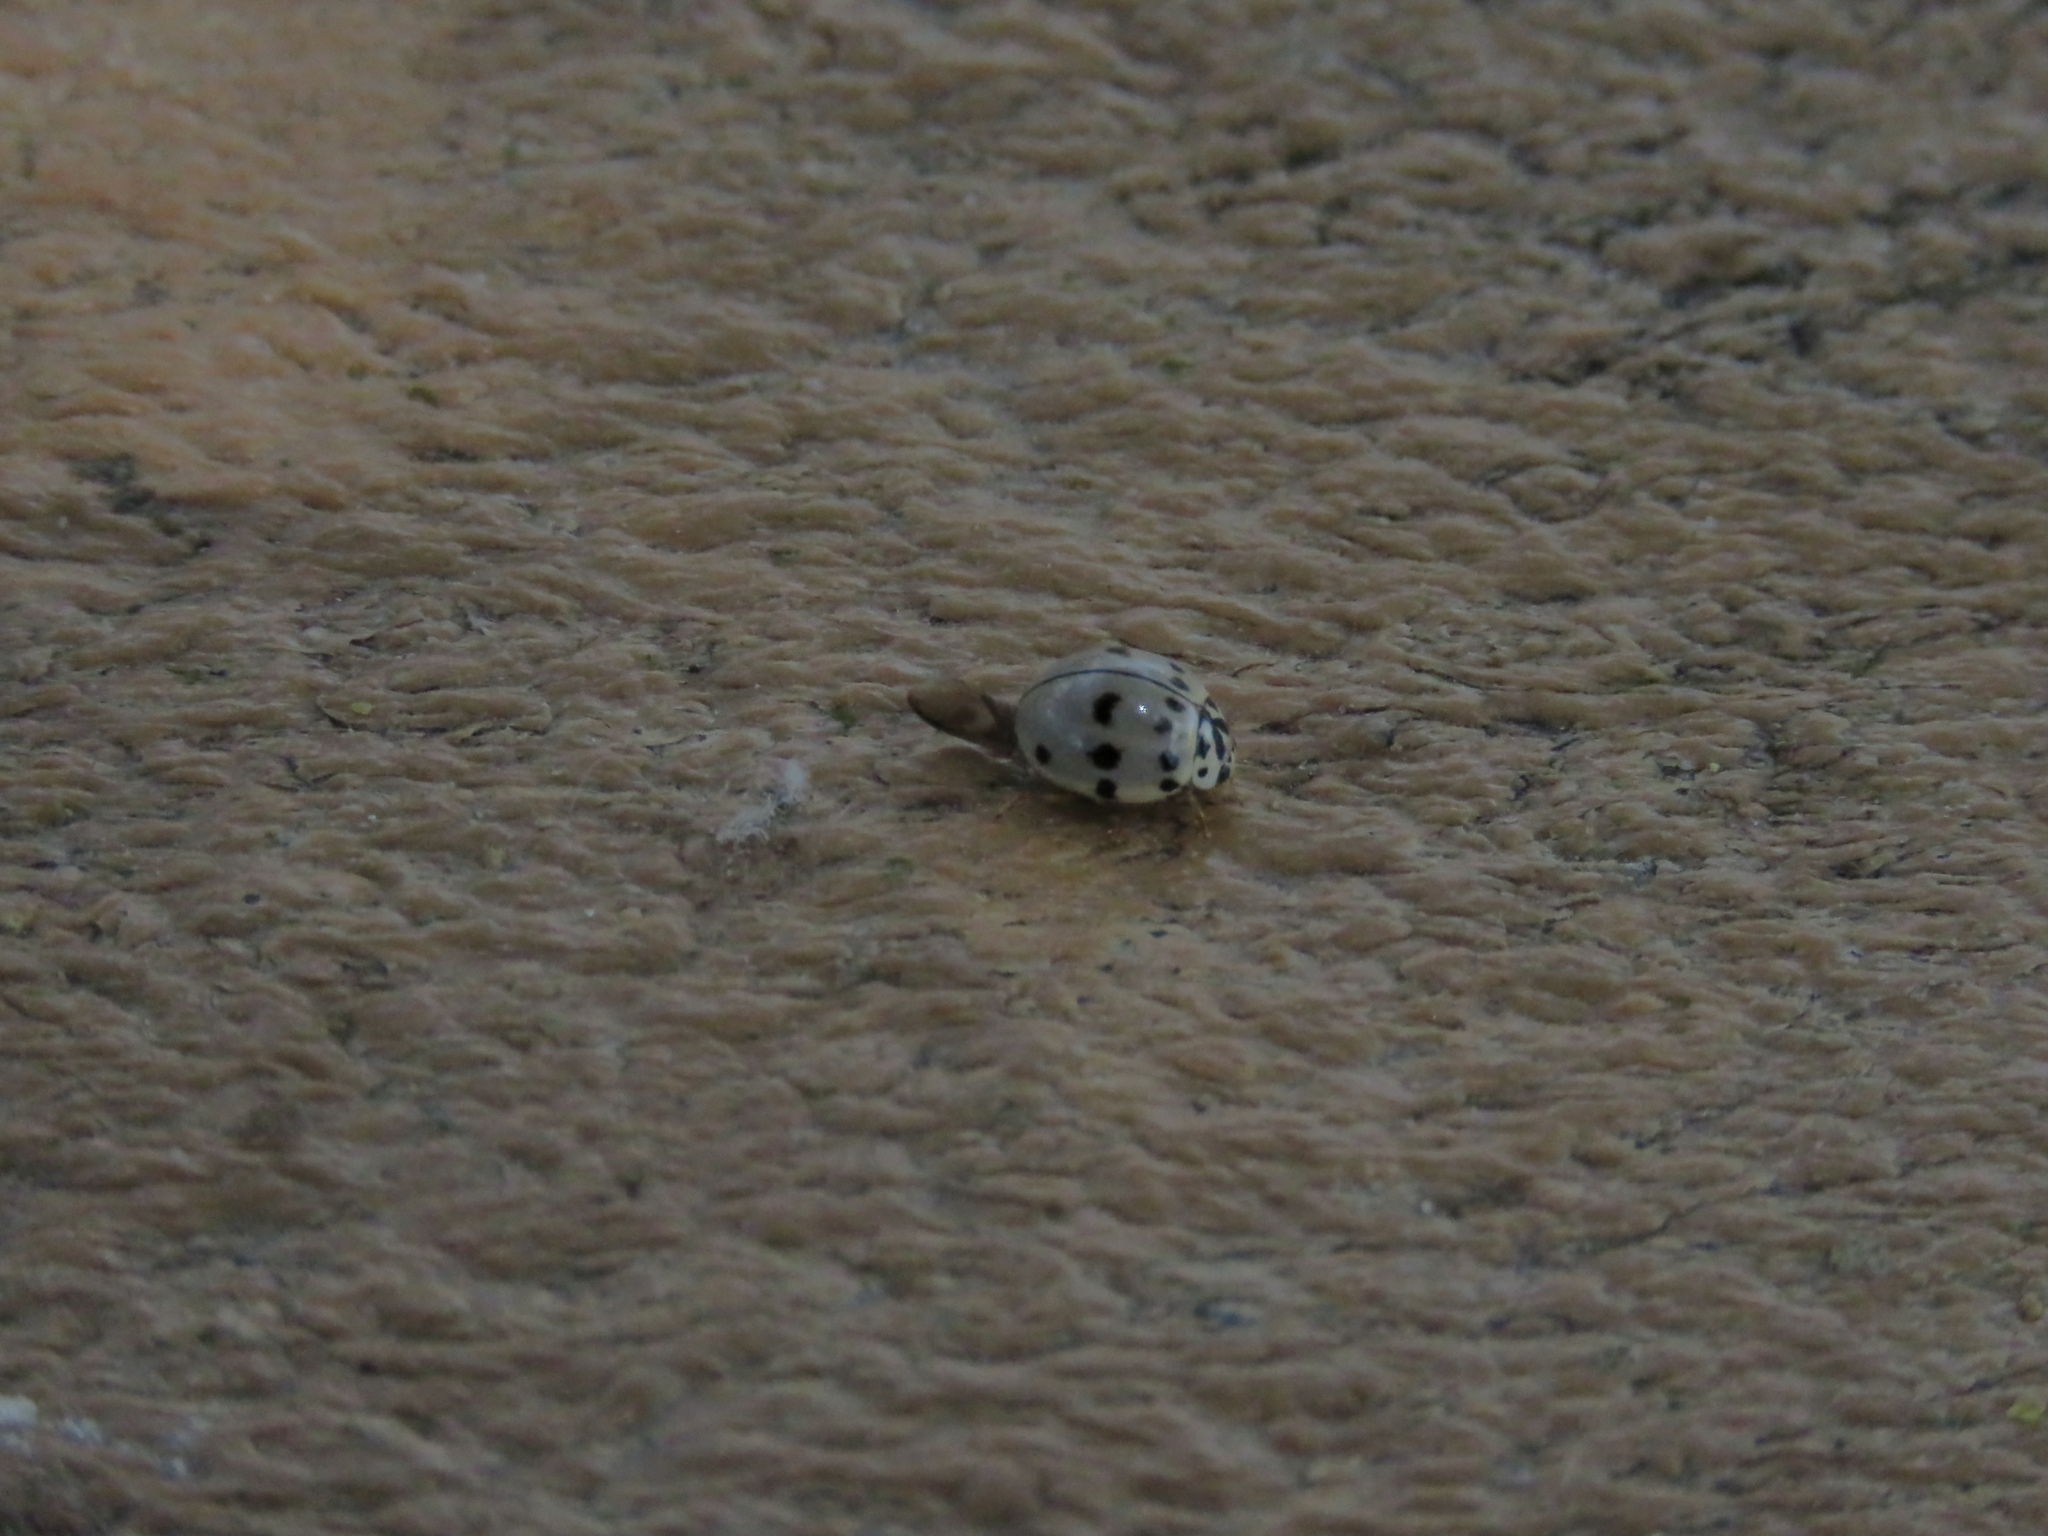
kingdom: Animalia
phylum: Arthropoda
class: Insecta
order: Coleoptera
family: Coccinellidae
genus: Olla
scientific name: Olla v-nigrum
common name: Ashy gray lady beetle
